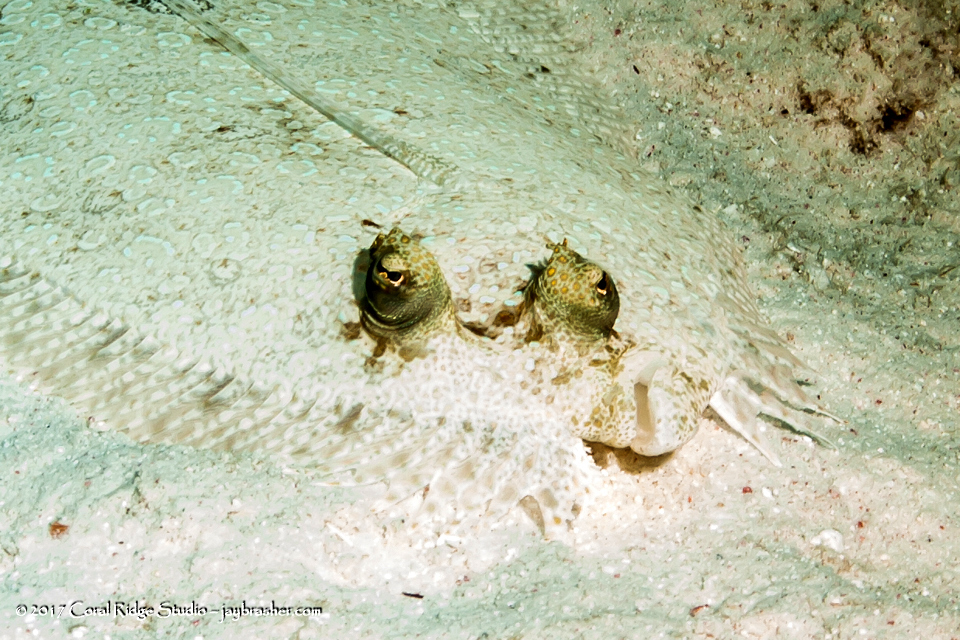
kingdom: Animalia
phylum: Chordata
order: Pleuronectiformes
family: Bothidae
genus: Bothus
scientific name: Bothus lunatus
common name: Peacock flounder
